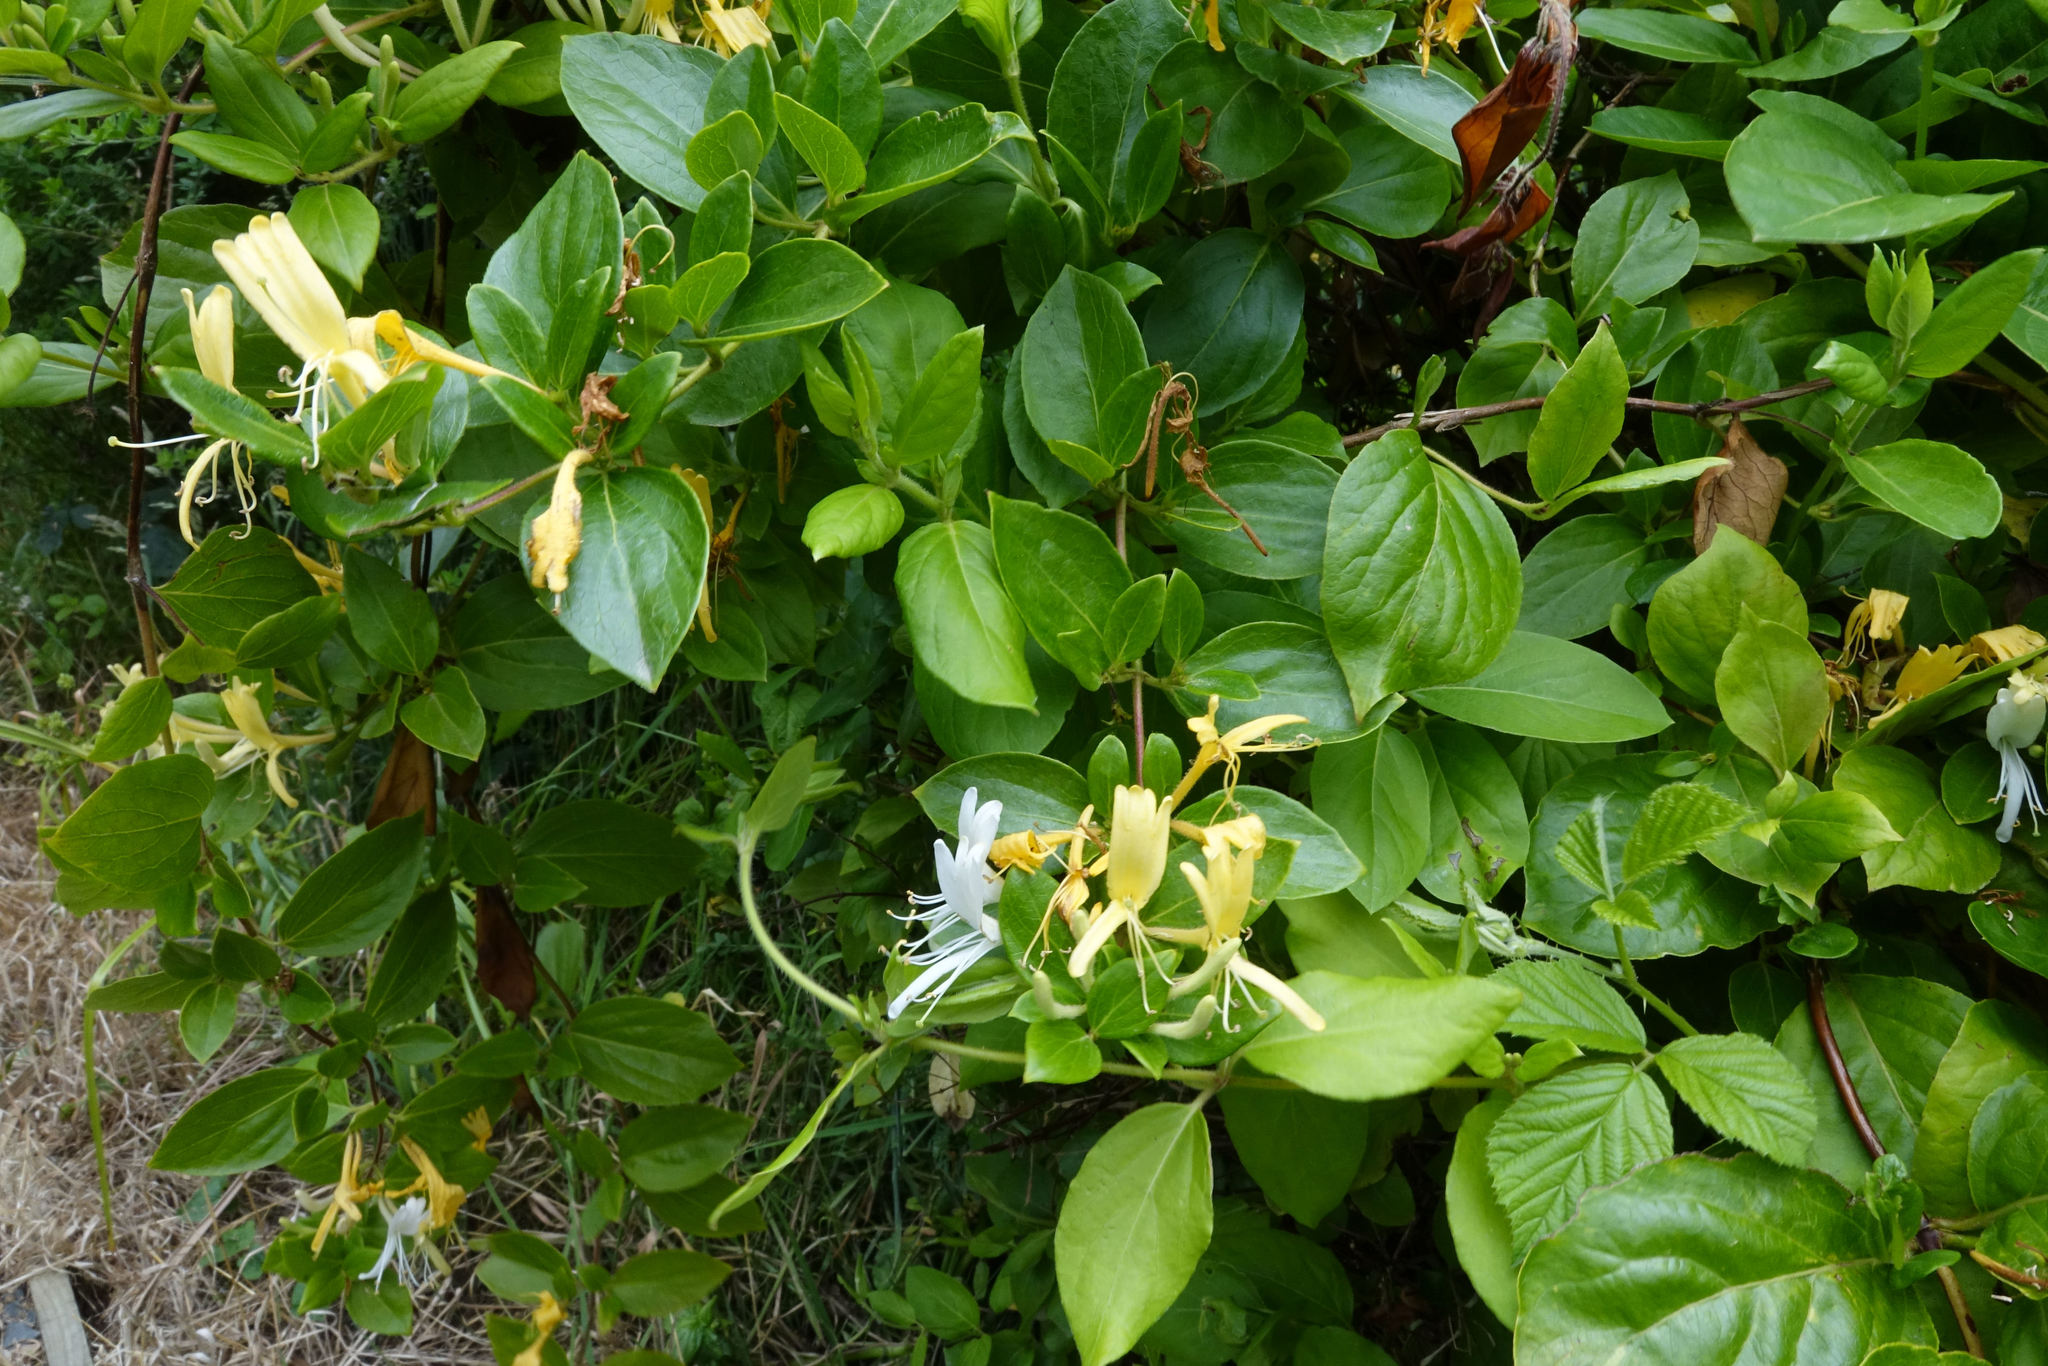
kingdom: Plantae
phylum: Tracheophyta
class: Magnoliopsida
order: Dipsacales
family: Caprifoliaceae
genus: Lonicera
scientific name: Lonicera japonica
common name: Japanese honeysuckle
